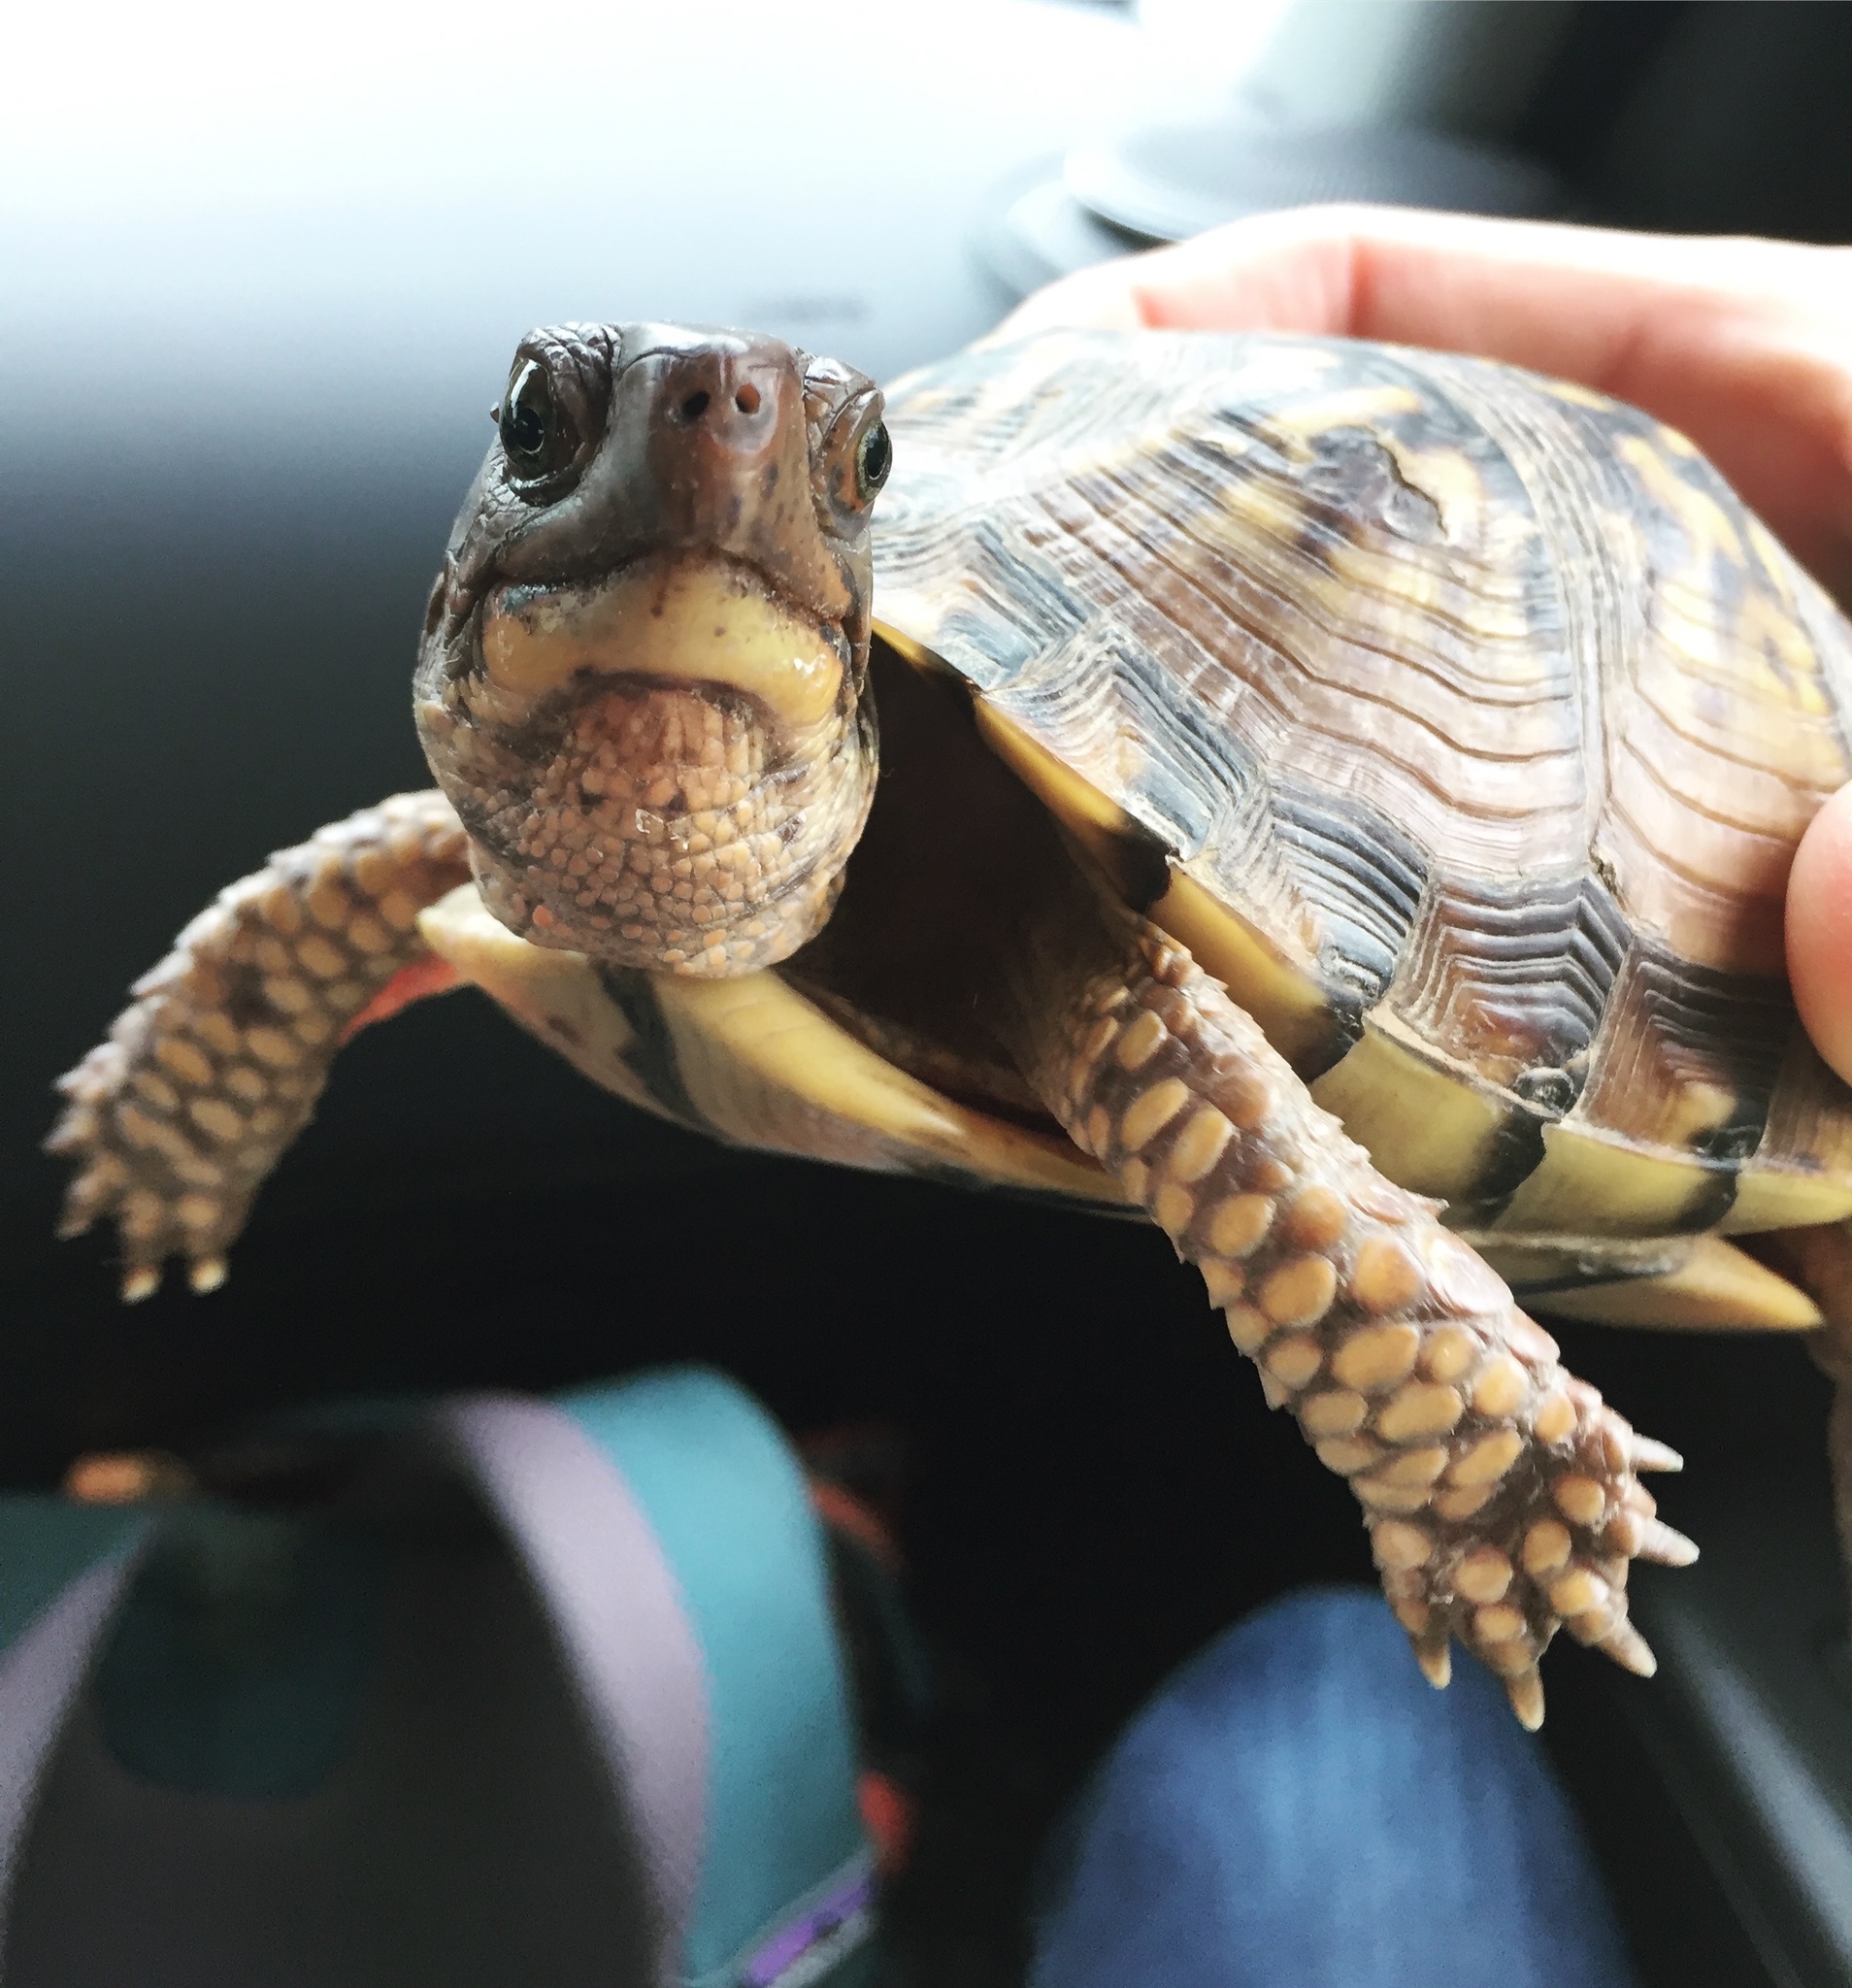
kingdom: Animalia
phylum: Chordata
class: Testudines
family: Emydidae
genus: Terrapene
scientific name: Terrapene carolina
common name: Common box turtle
